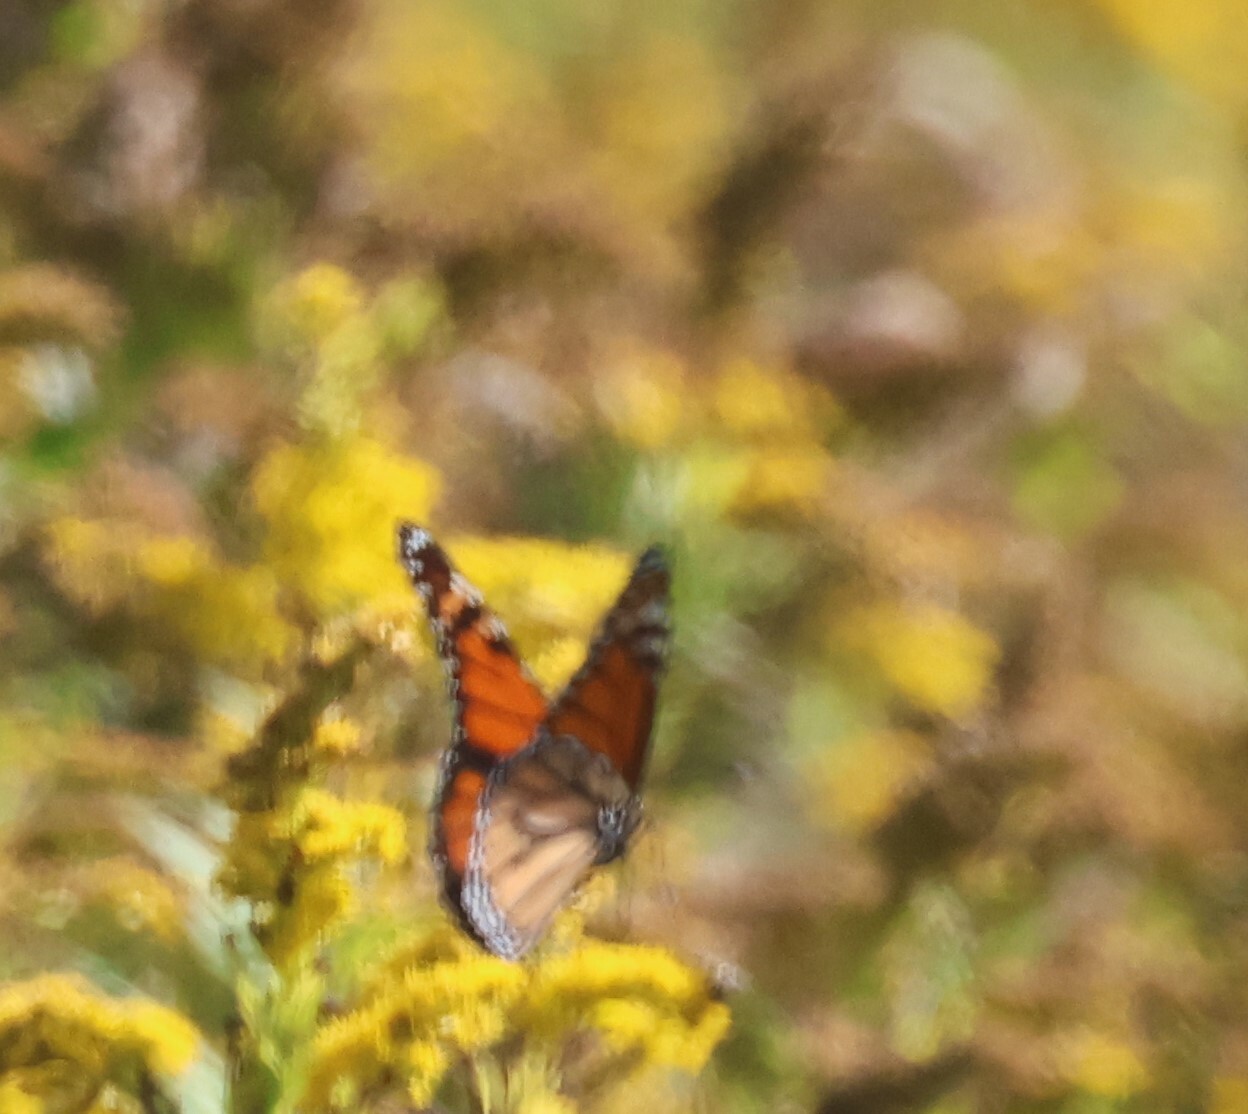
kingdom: Animalia
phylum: Arthropoda
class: Insecta
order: Lepidoptera
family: Nymphalidae
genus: Danaus
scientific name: Danaus plexippus
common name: Monarch
